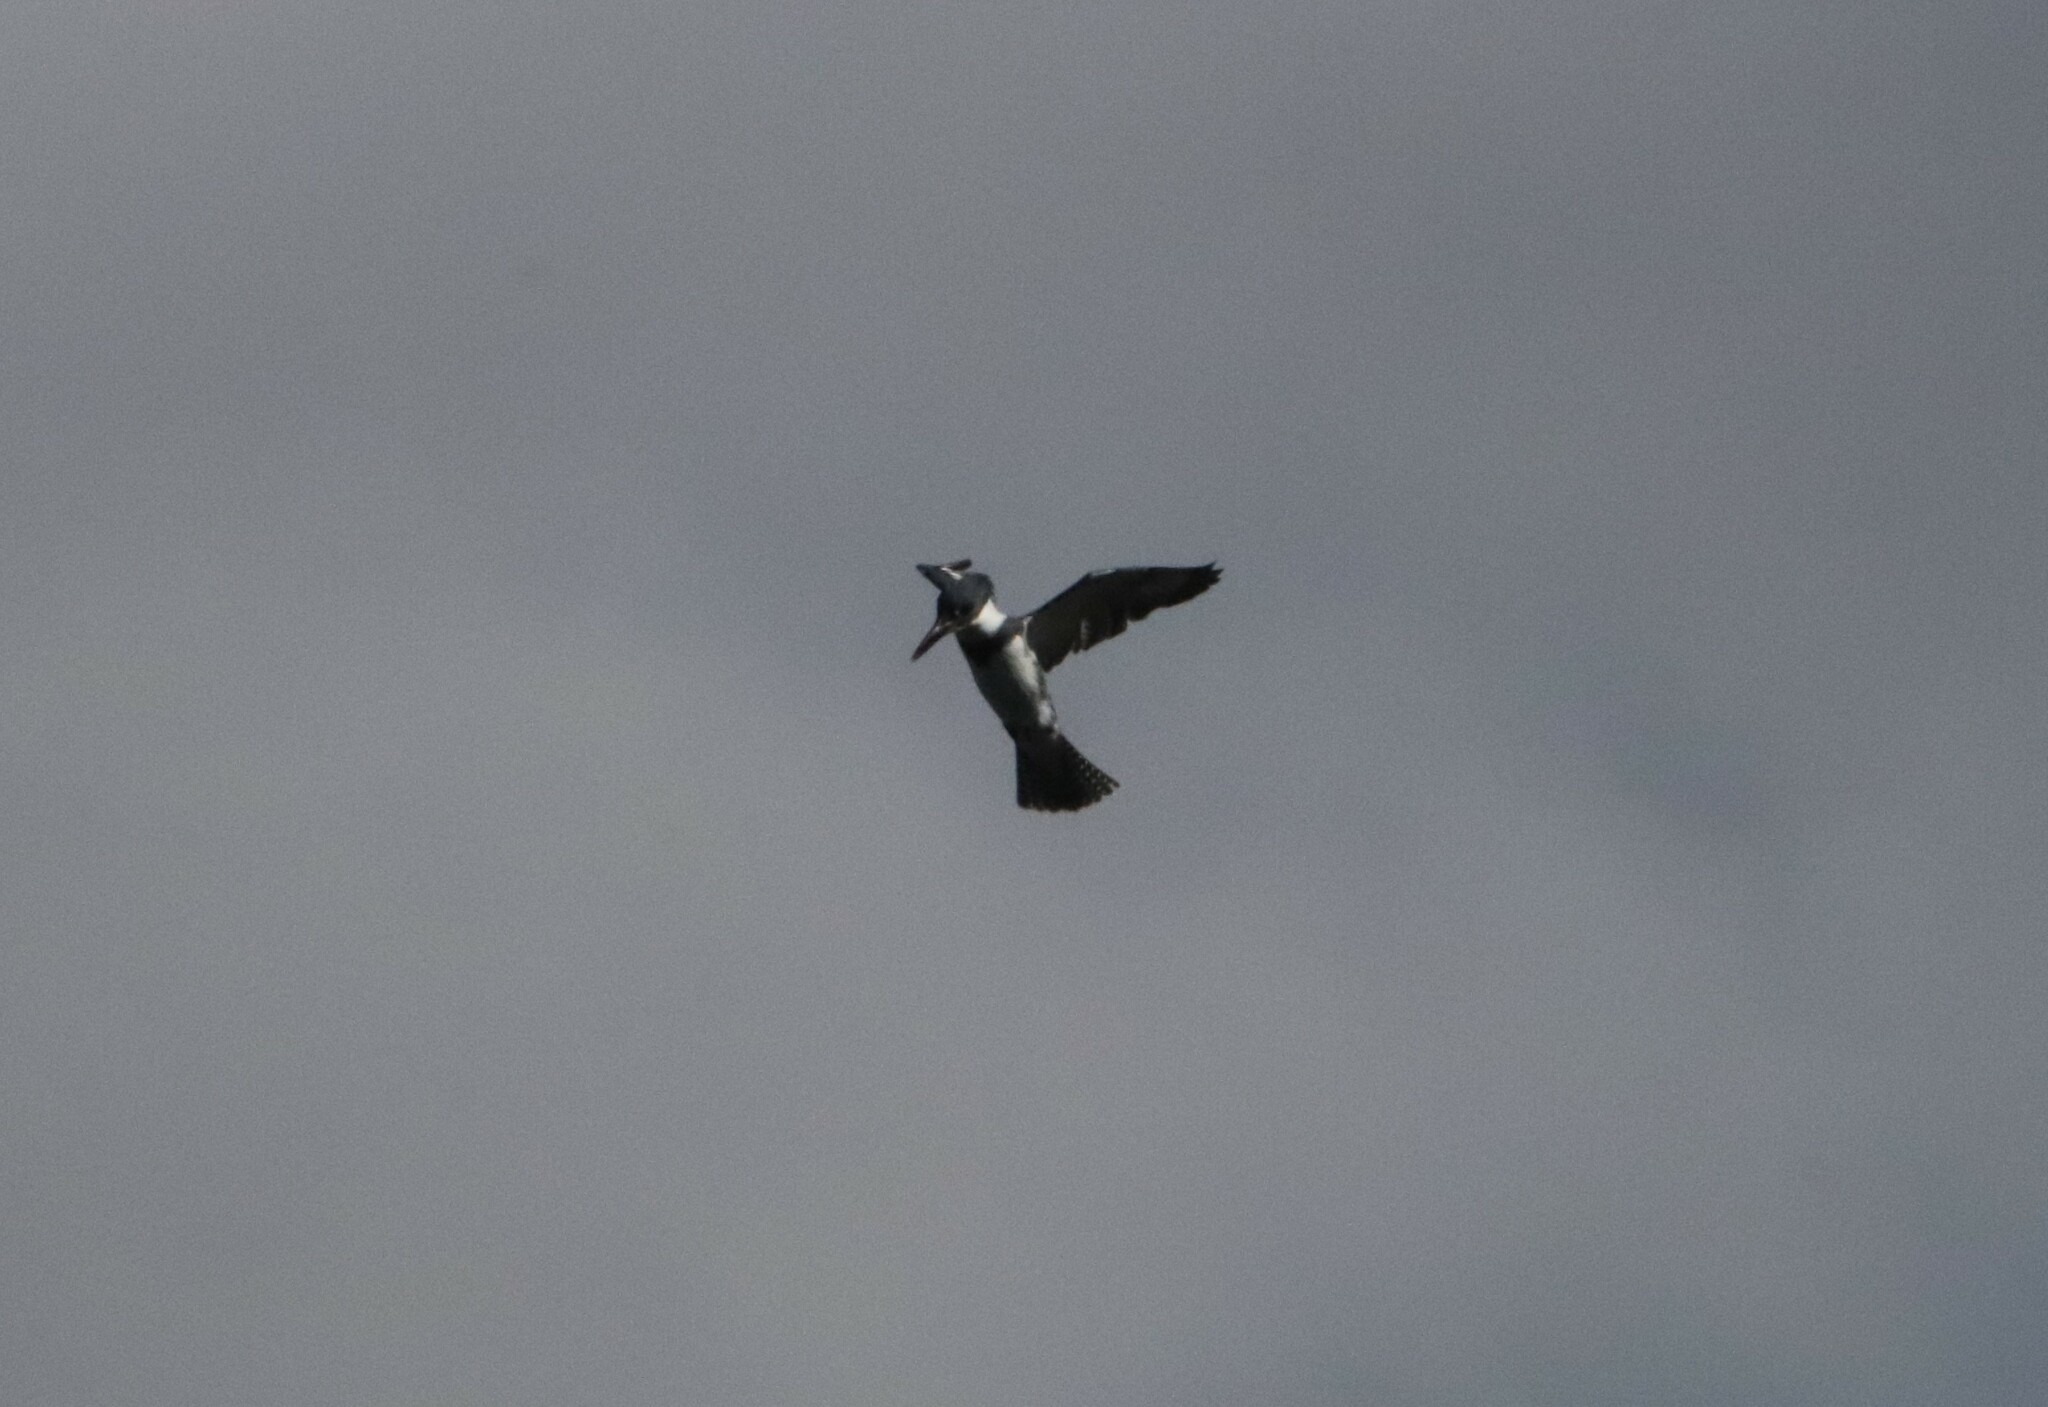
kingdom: Animalia
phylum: Chordata
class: Aves
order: Coraciiformes
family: Alcedinidae
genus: Megaceryle
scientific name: Megaceryle alcyon
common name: Belted kingfisher
